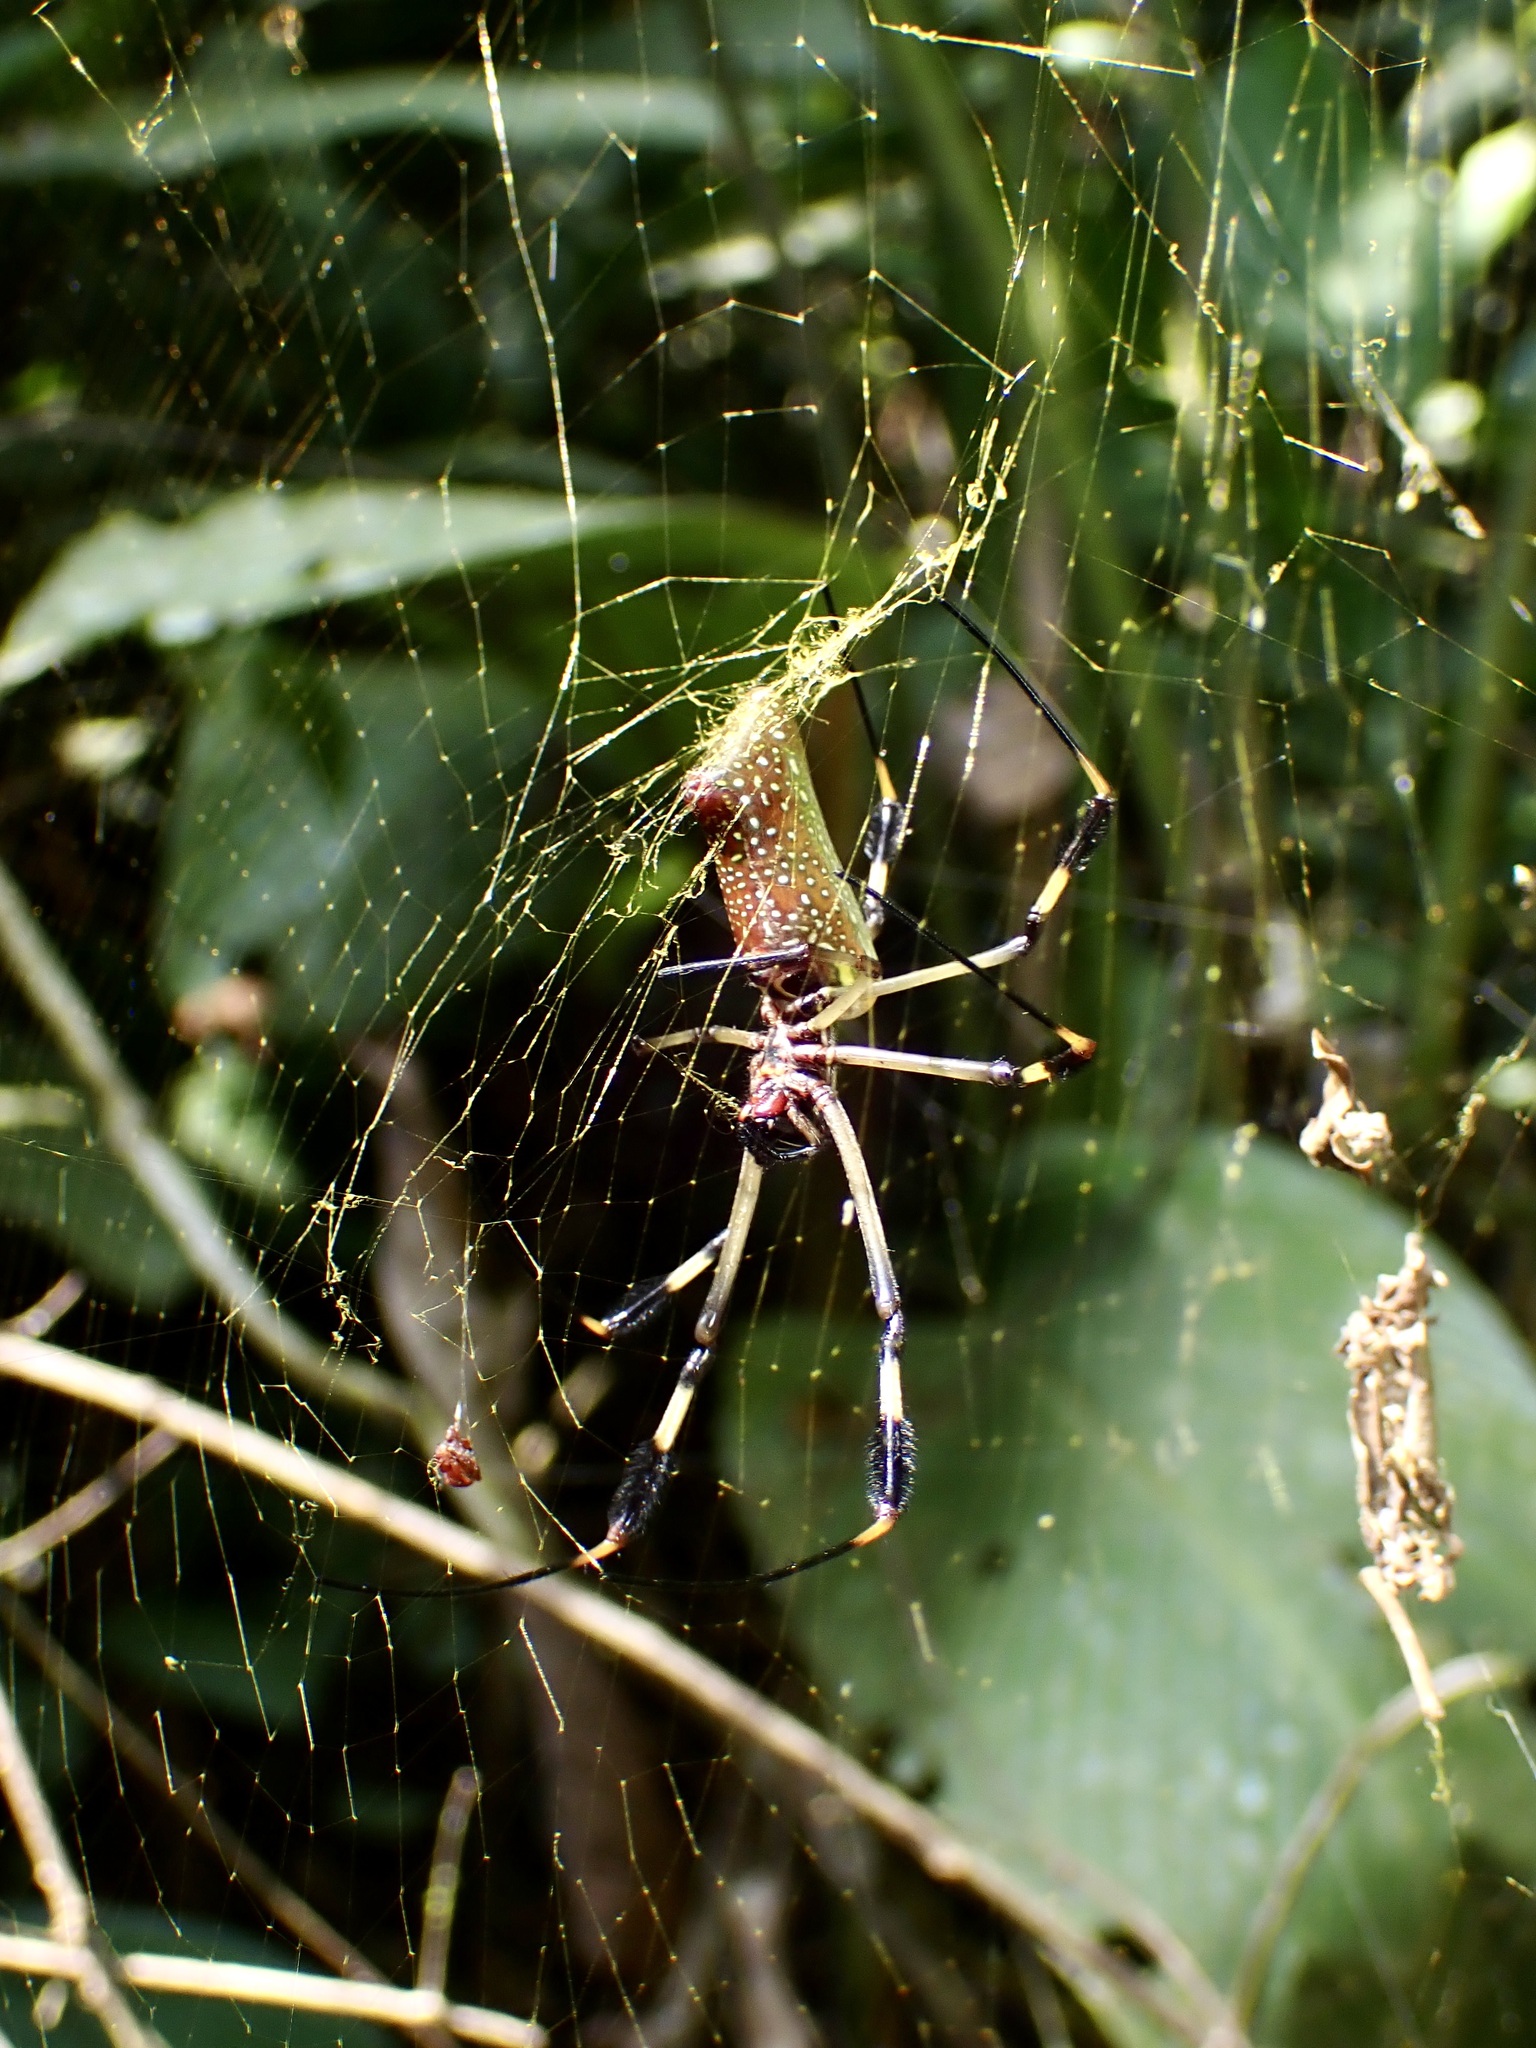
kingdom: Animalia
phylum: Arthropoda
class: Arachnida
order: Araneae
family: Araneidae
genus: Trichonephila
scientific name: Trichonephila clavipes
